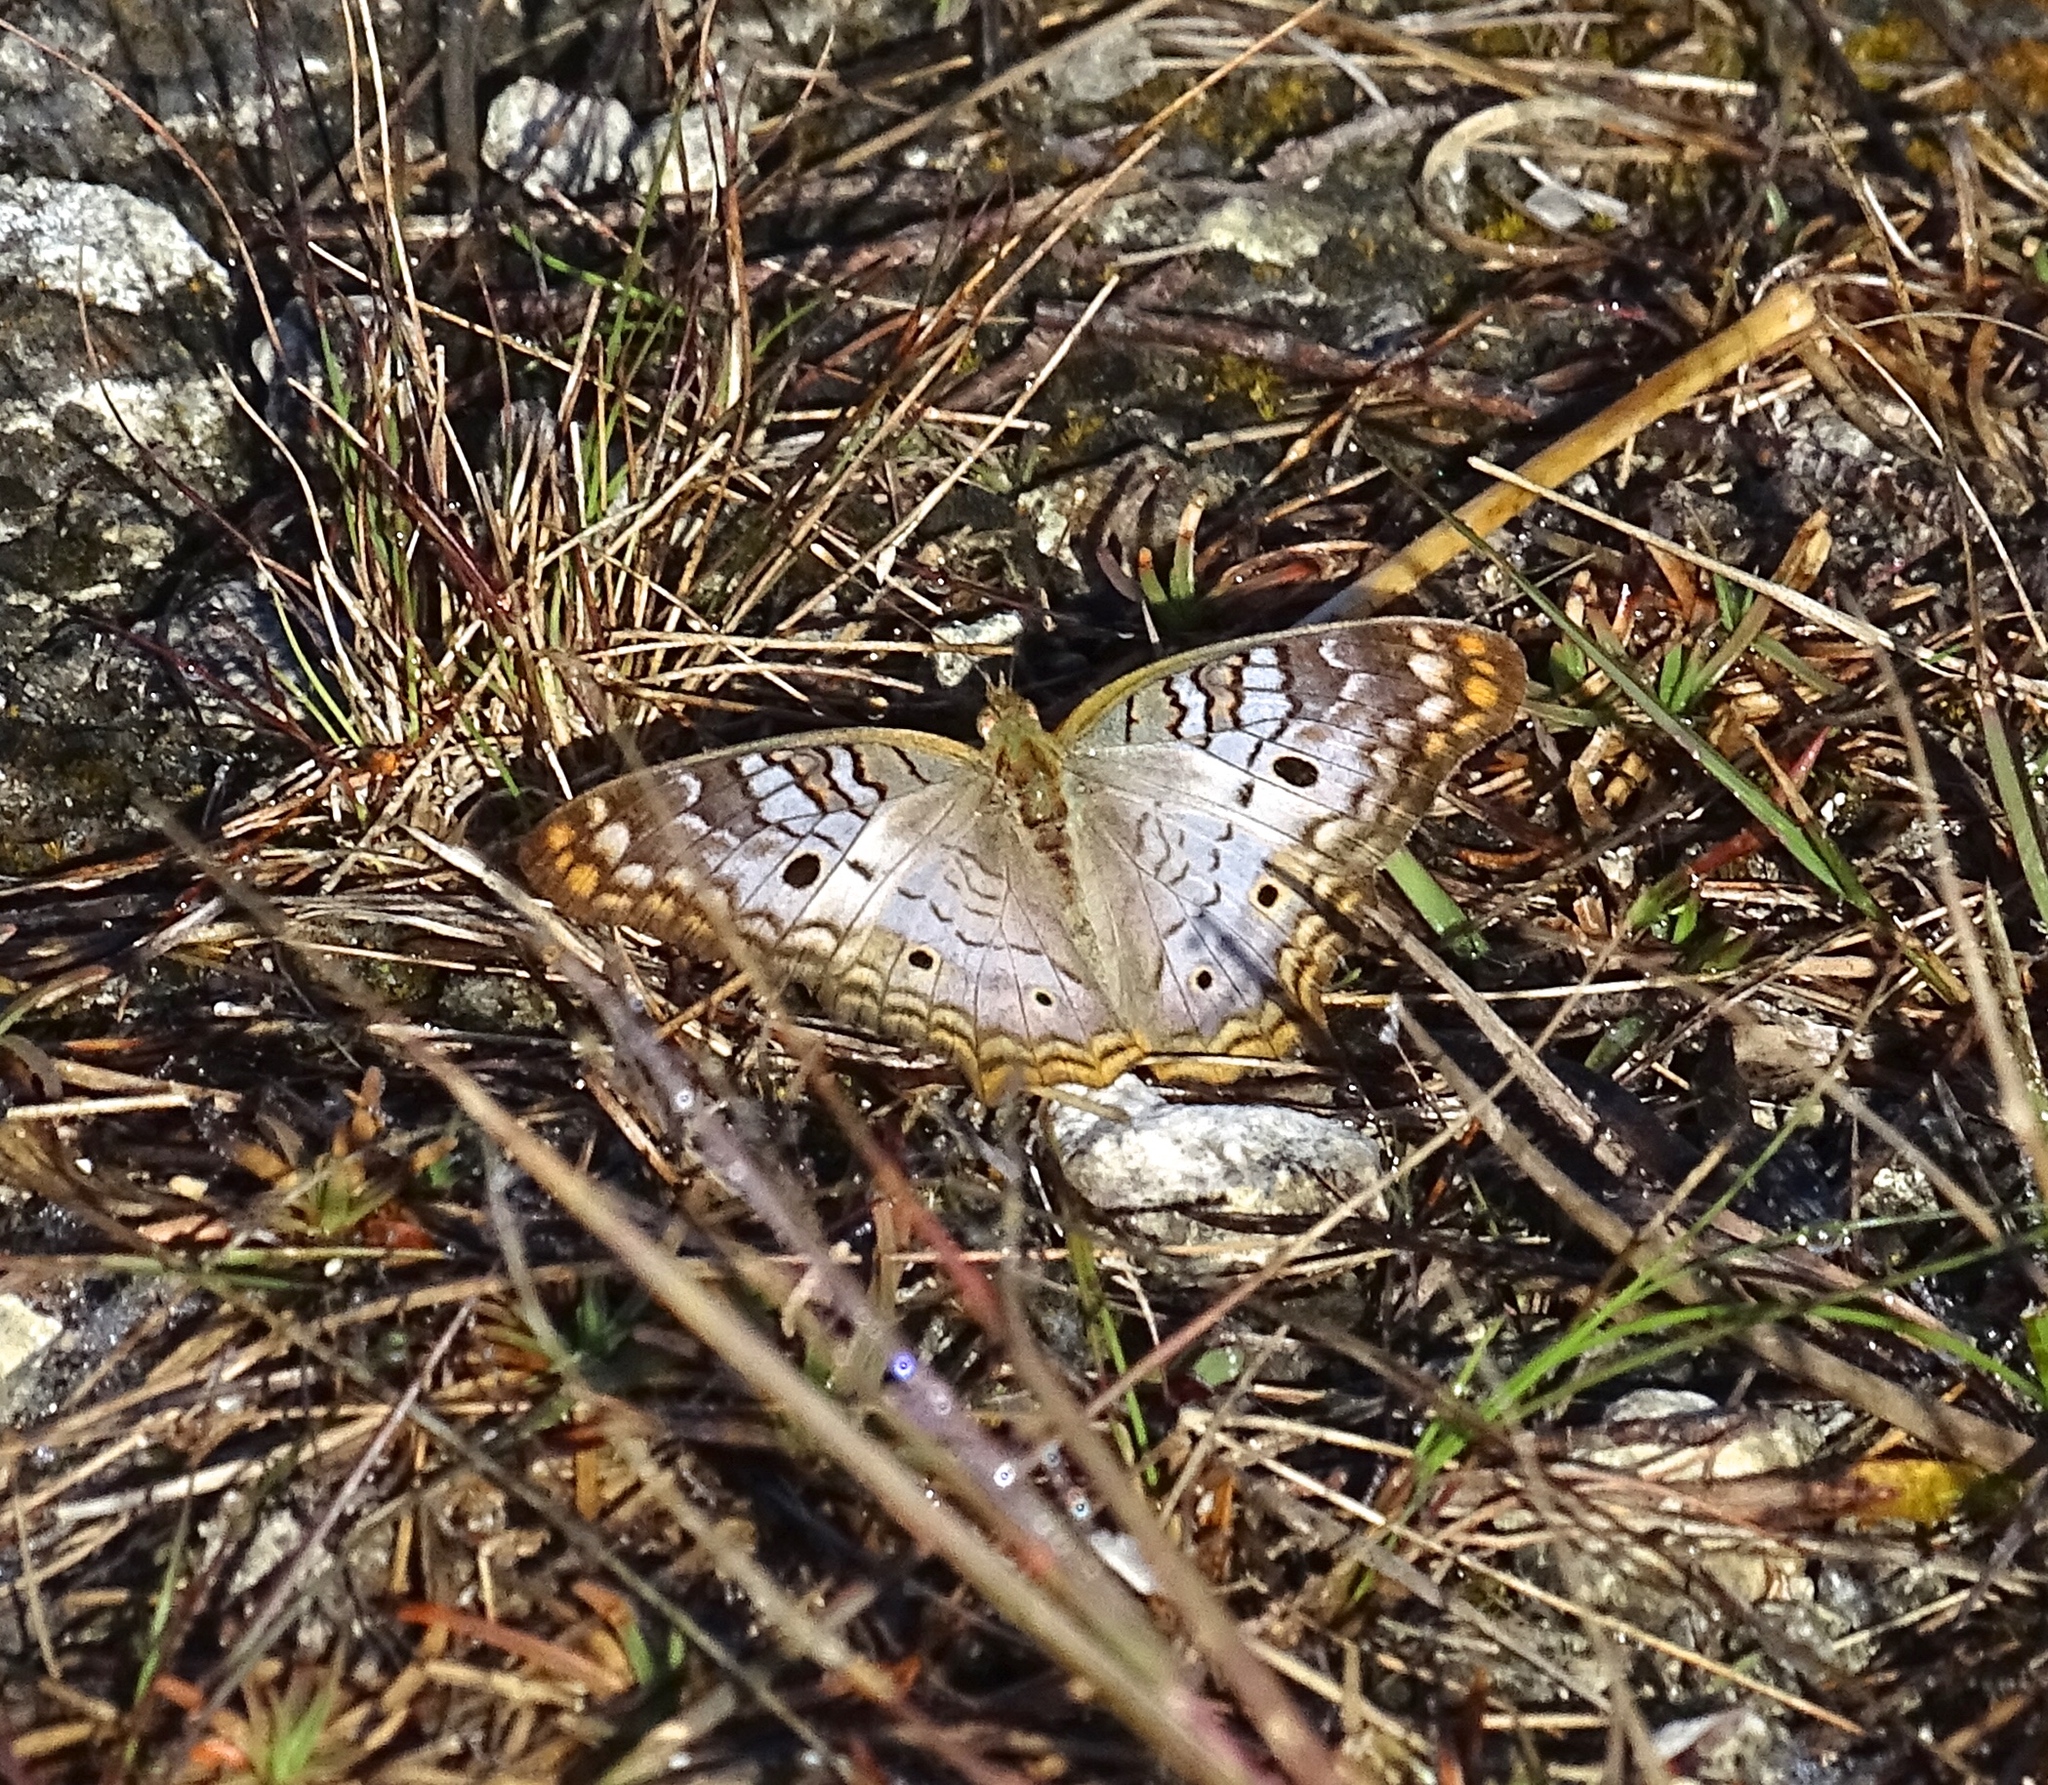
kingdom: Animalia
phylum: Arthropoda
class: Insecta
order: Lepidoptera
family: Nymphalidae
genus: Anartia
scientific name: Anartia jatrophae
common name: White peacock
